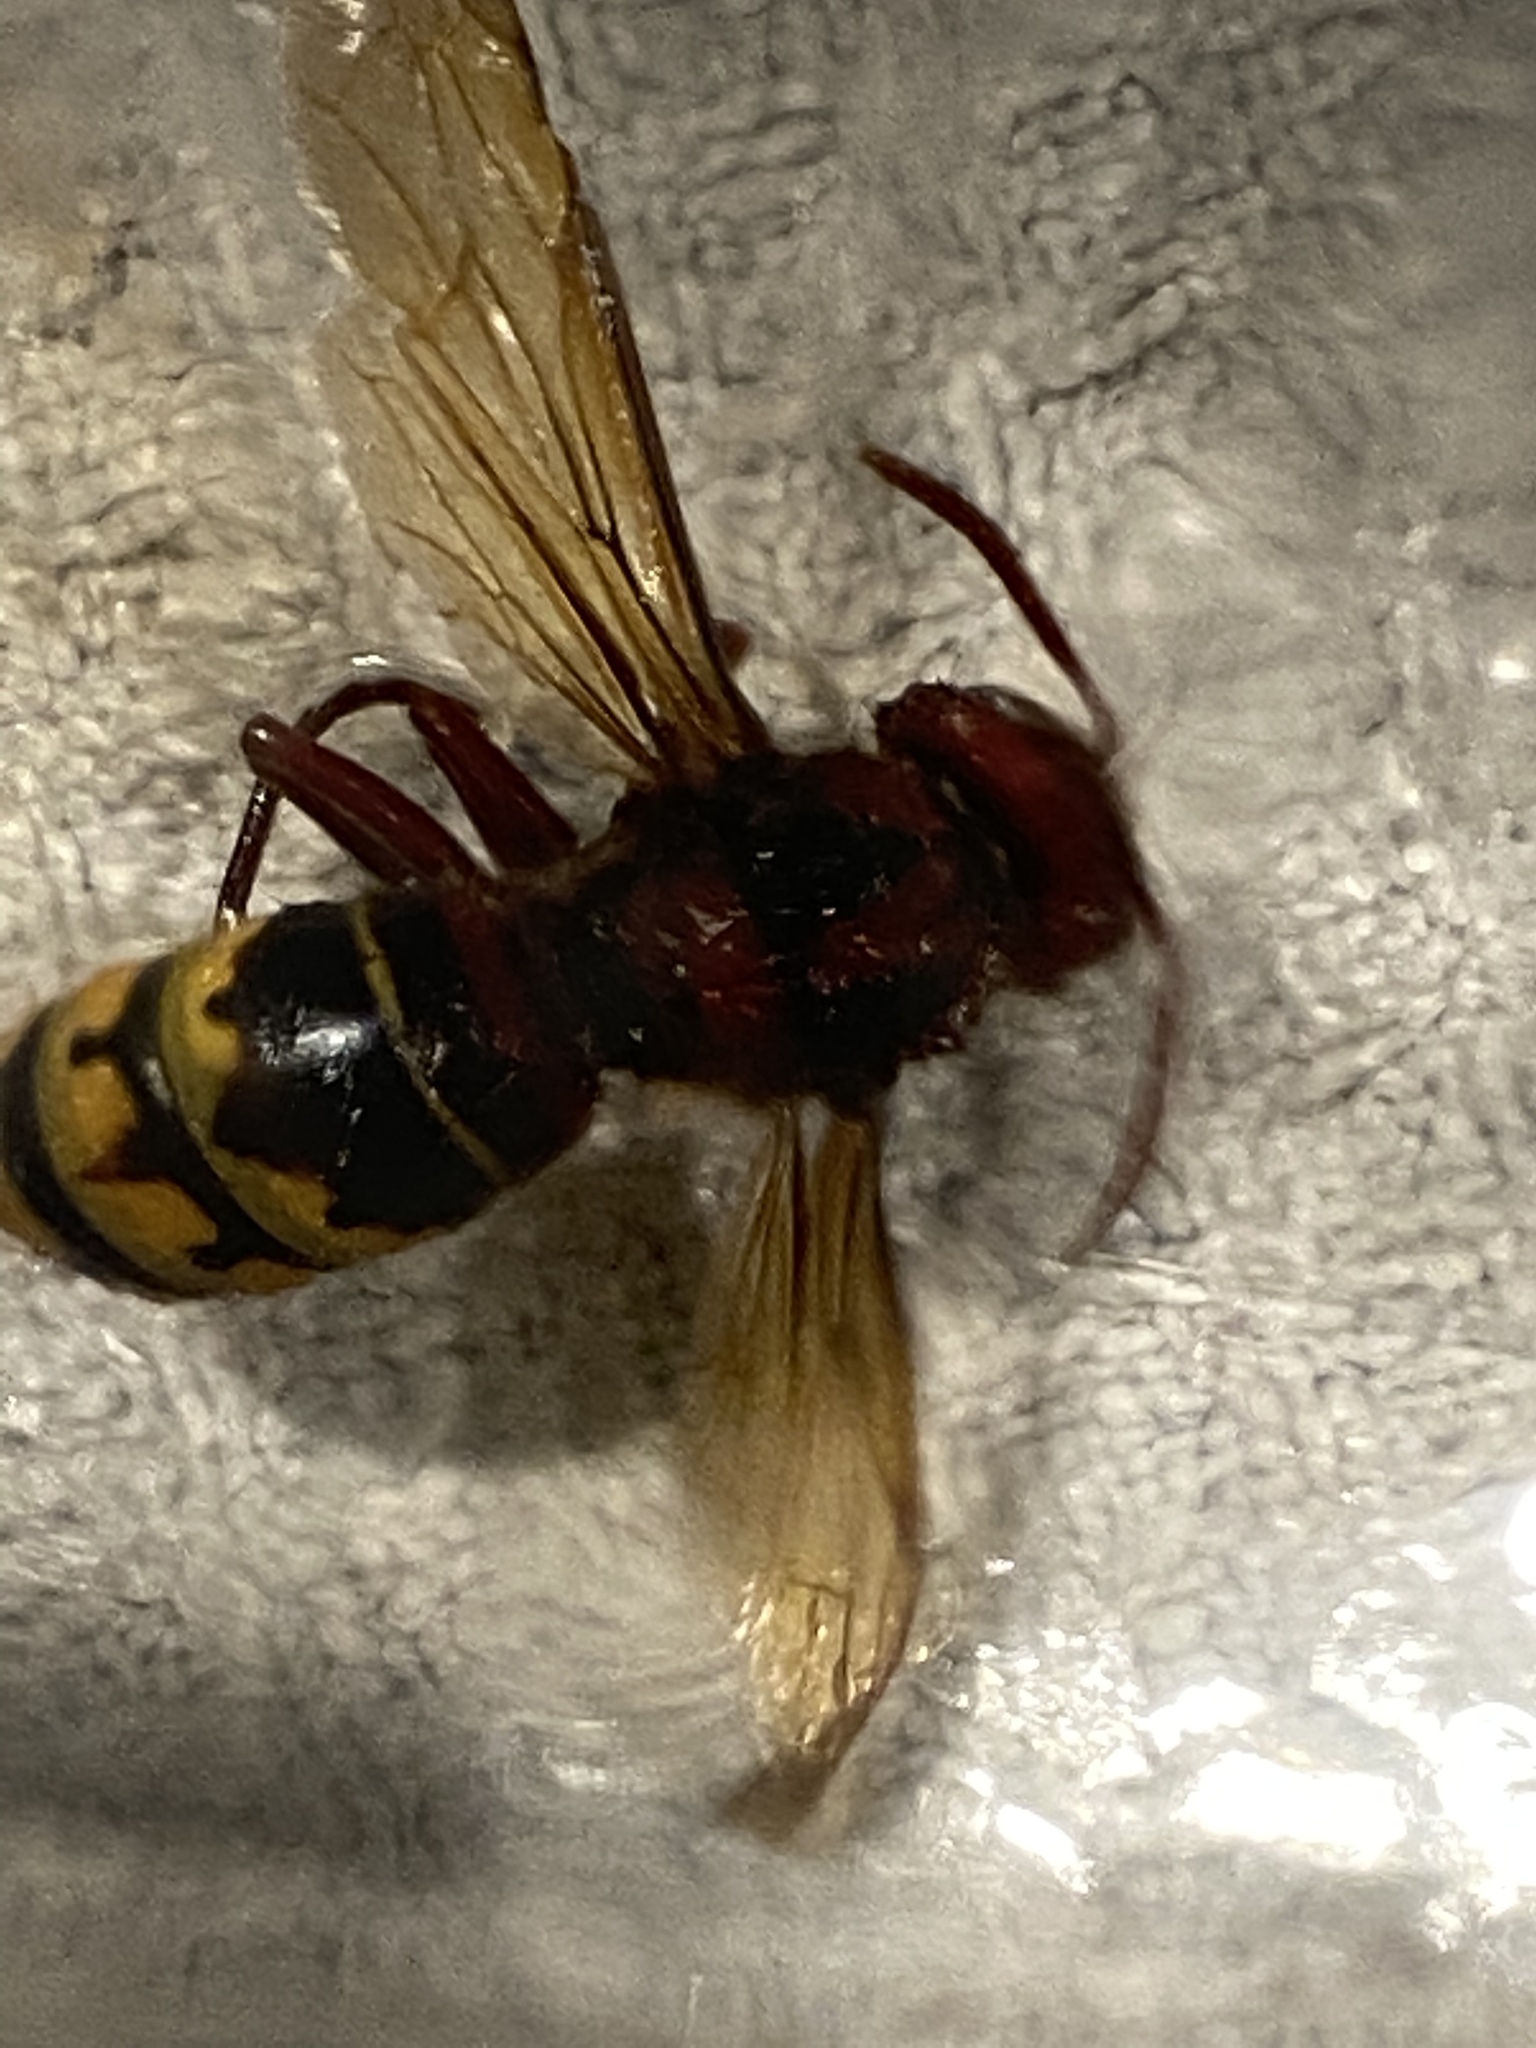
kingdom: Animalia
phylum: Arthropoda
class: Insecta
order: Hymenoptera
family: Vespidae
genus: Vespa
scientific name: Vespa crabro
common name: Hornet
